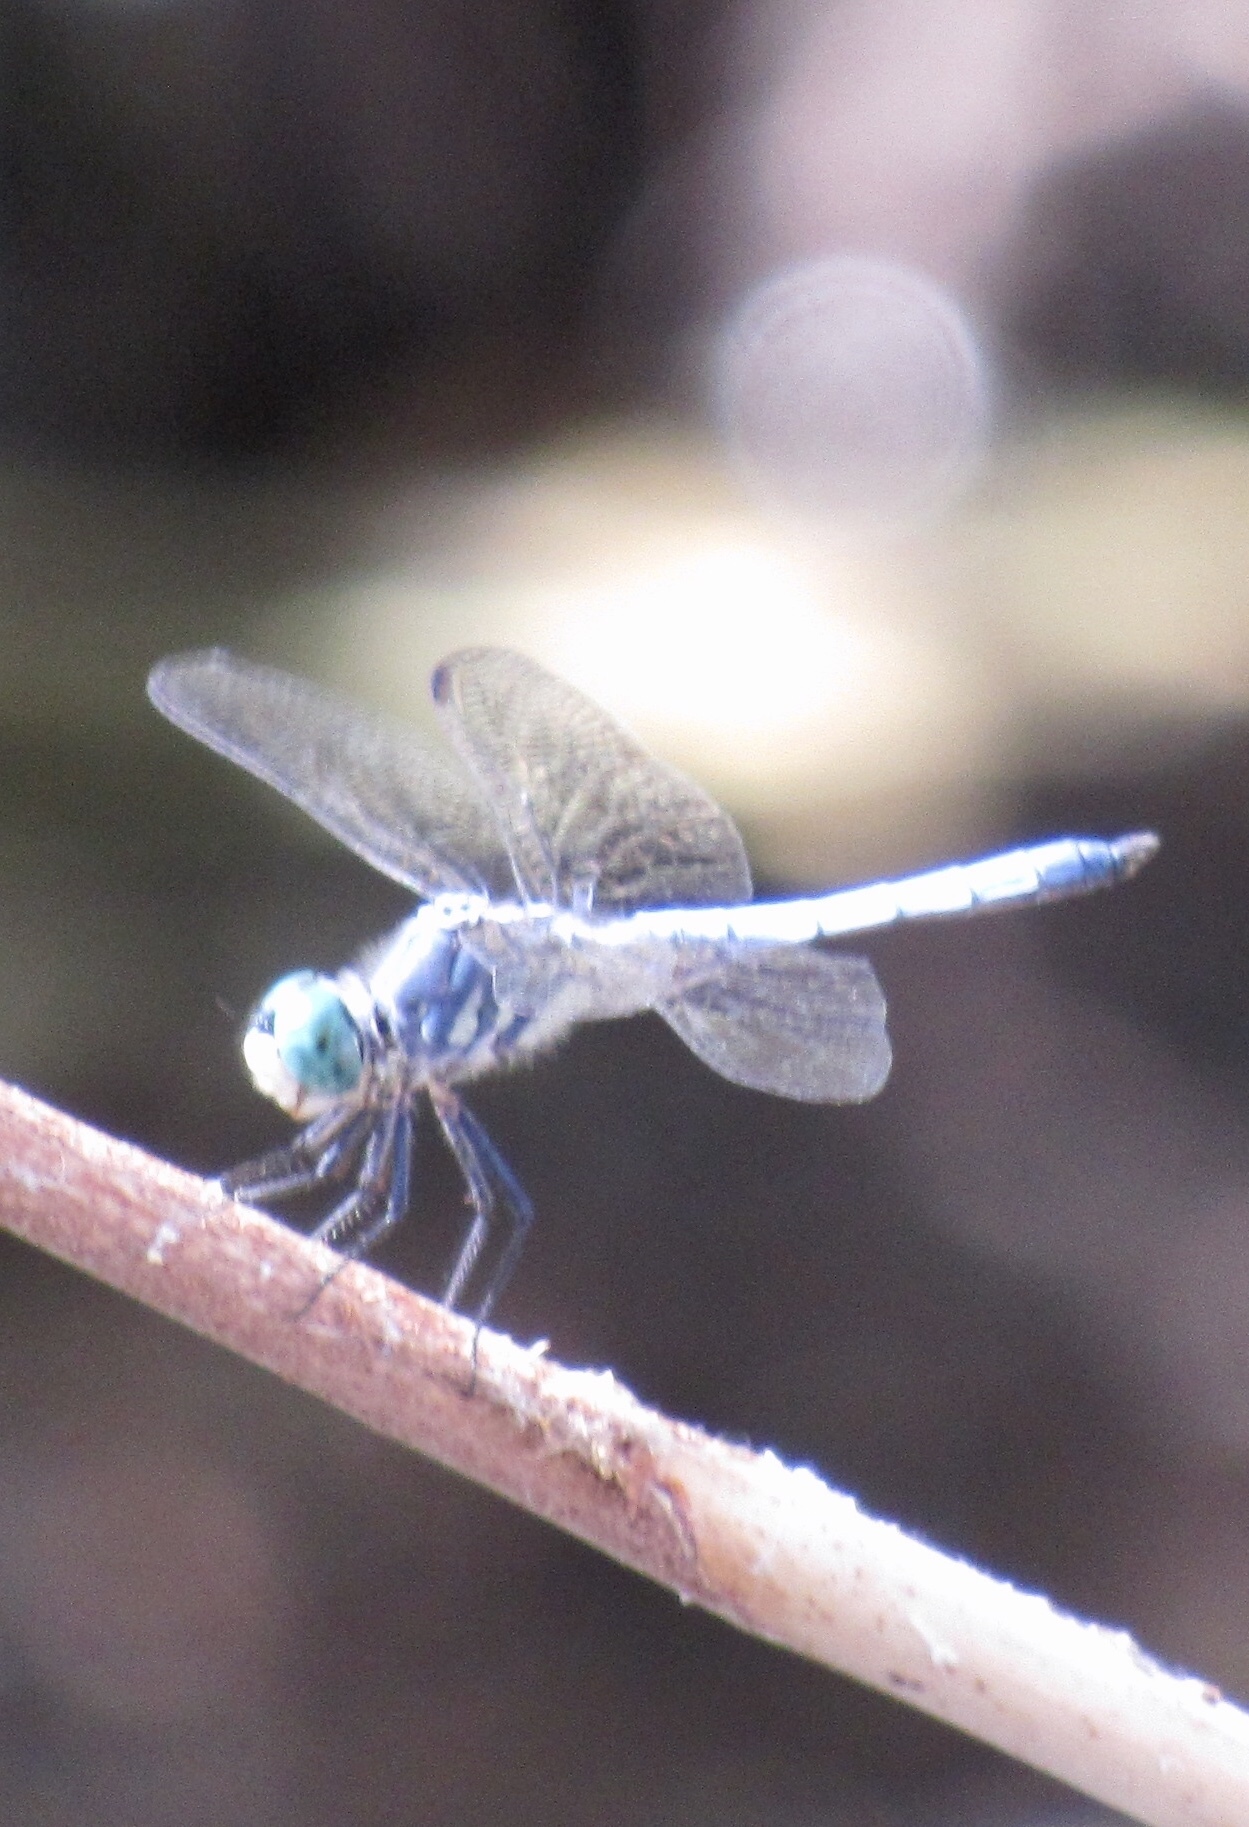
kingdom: Animalia
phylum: Arthropoda
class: Insecta
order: Odonata
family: Libellulidae
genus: Pachydiplax
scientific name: Pachydiplax longipennis
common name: Blue dasher
